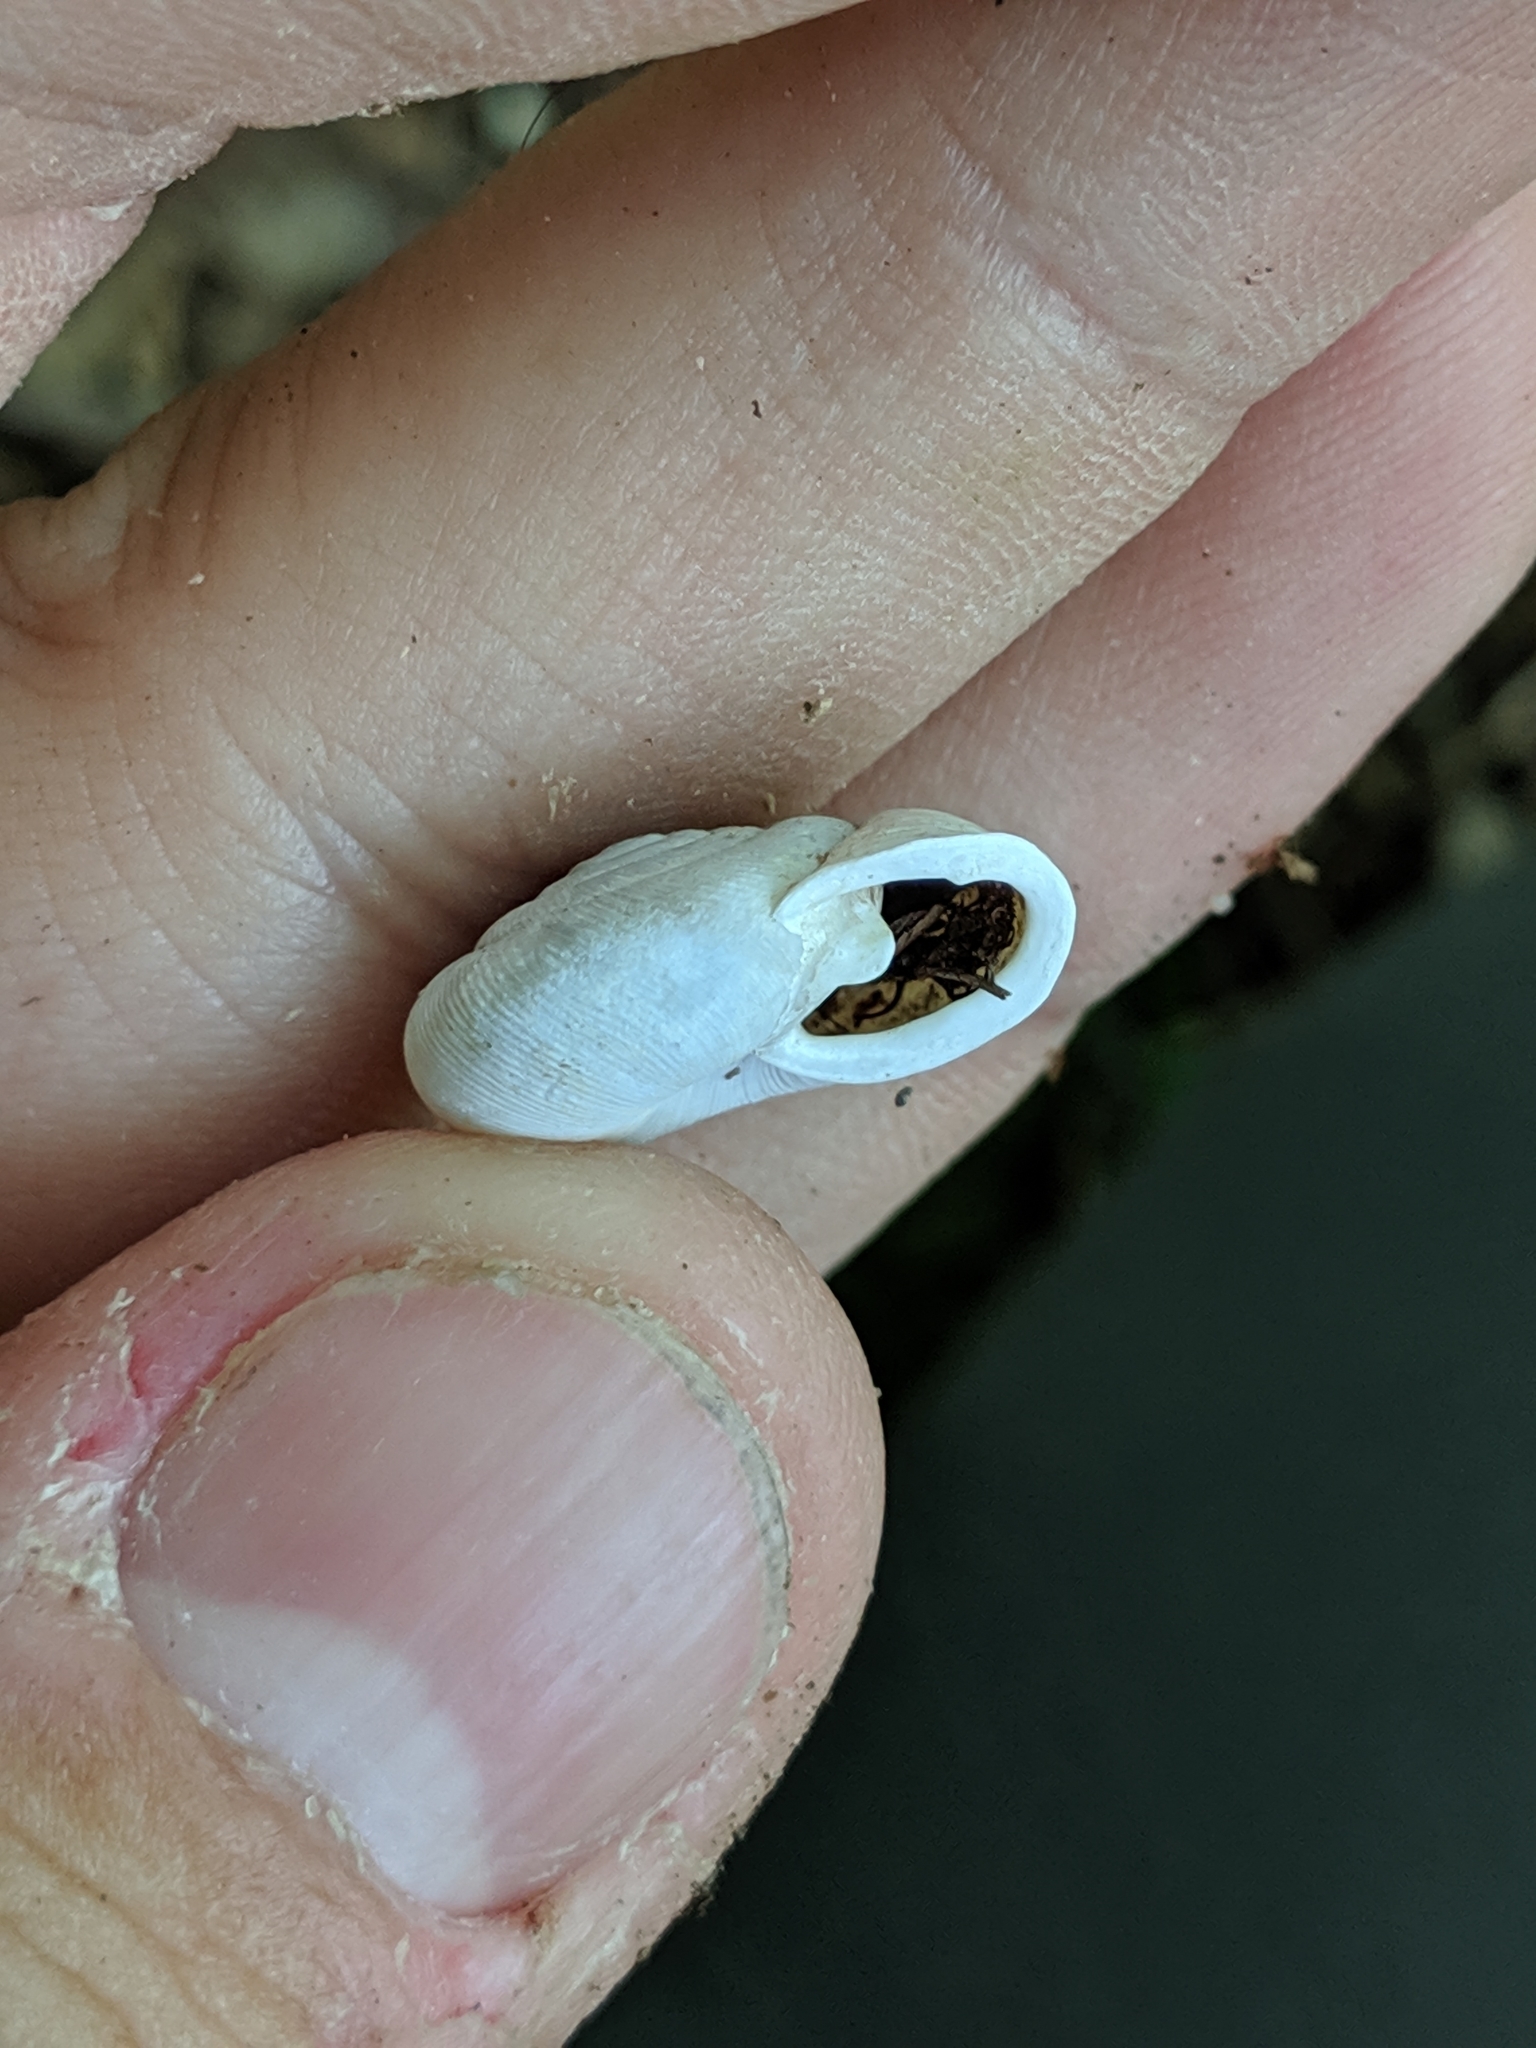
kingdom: Animalia
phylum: Mollusca
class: Gastropoda
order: Stylommatophora
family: Polygyridae
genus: Triodopsis
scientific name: Triodopsis complanata
